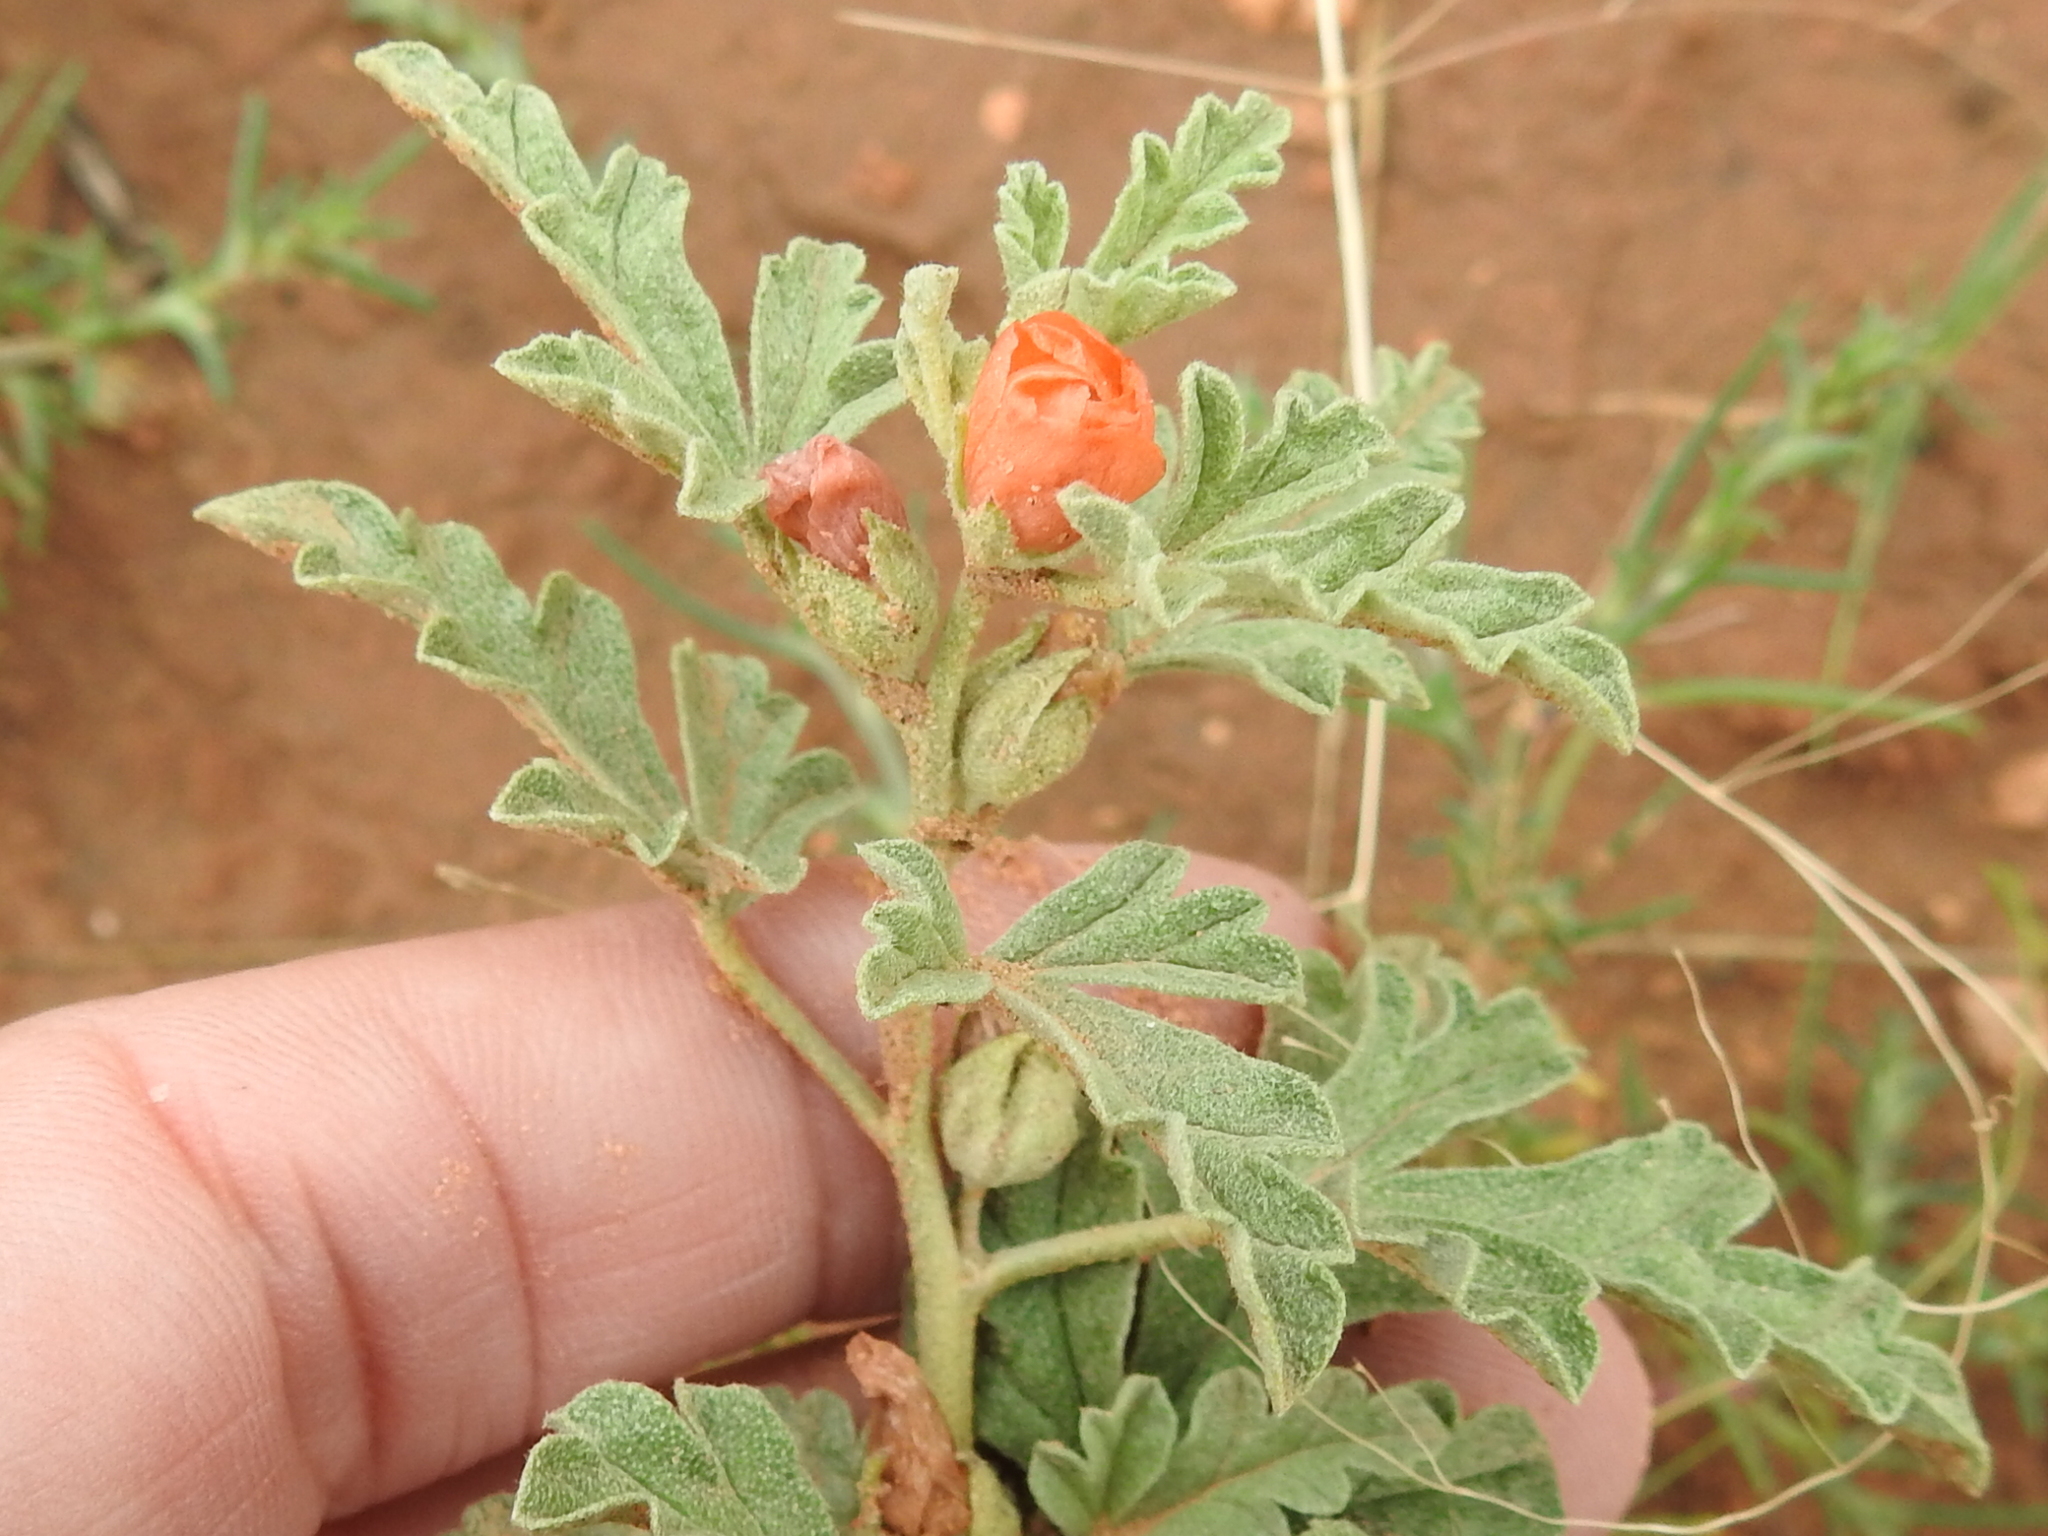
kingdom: Plantae
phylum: Tracheophyta
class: Magnoliopsida
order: Malvales
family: Malvaceae
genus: Sphaeralcea
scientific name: Sphaeralcea coccinea
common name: Moss-rose
